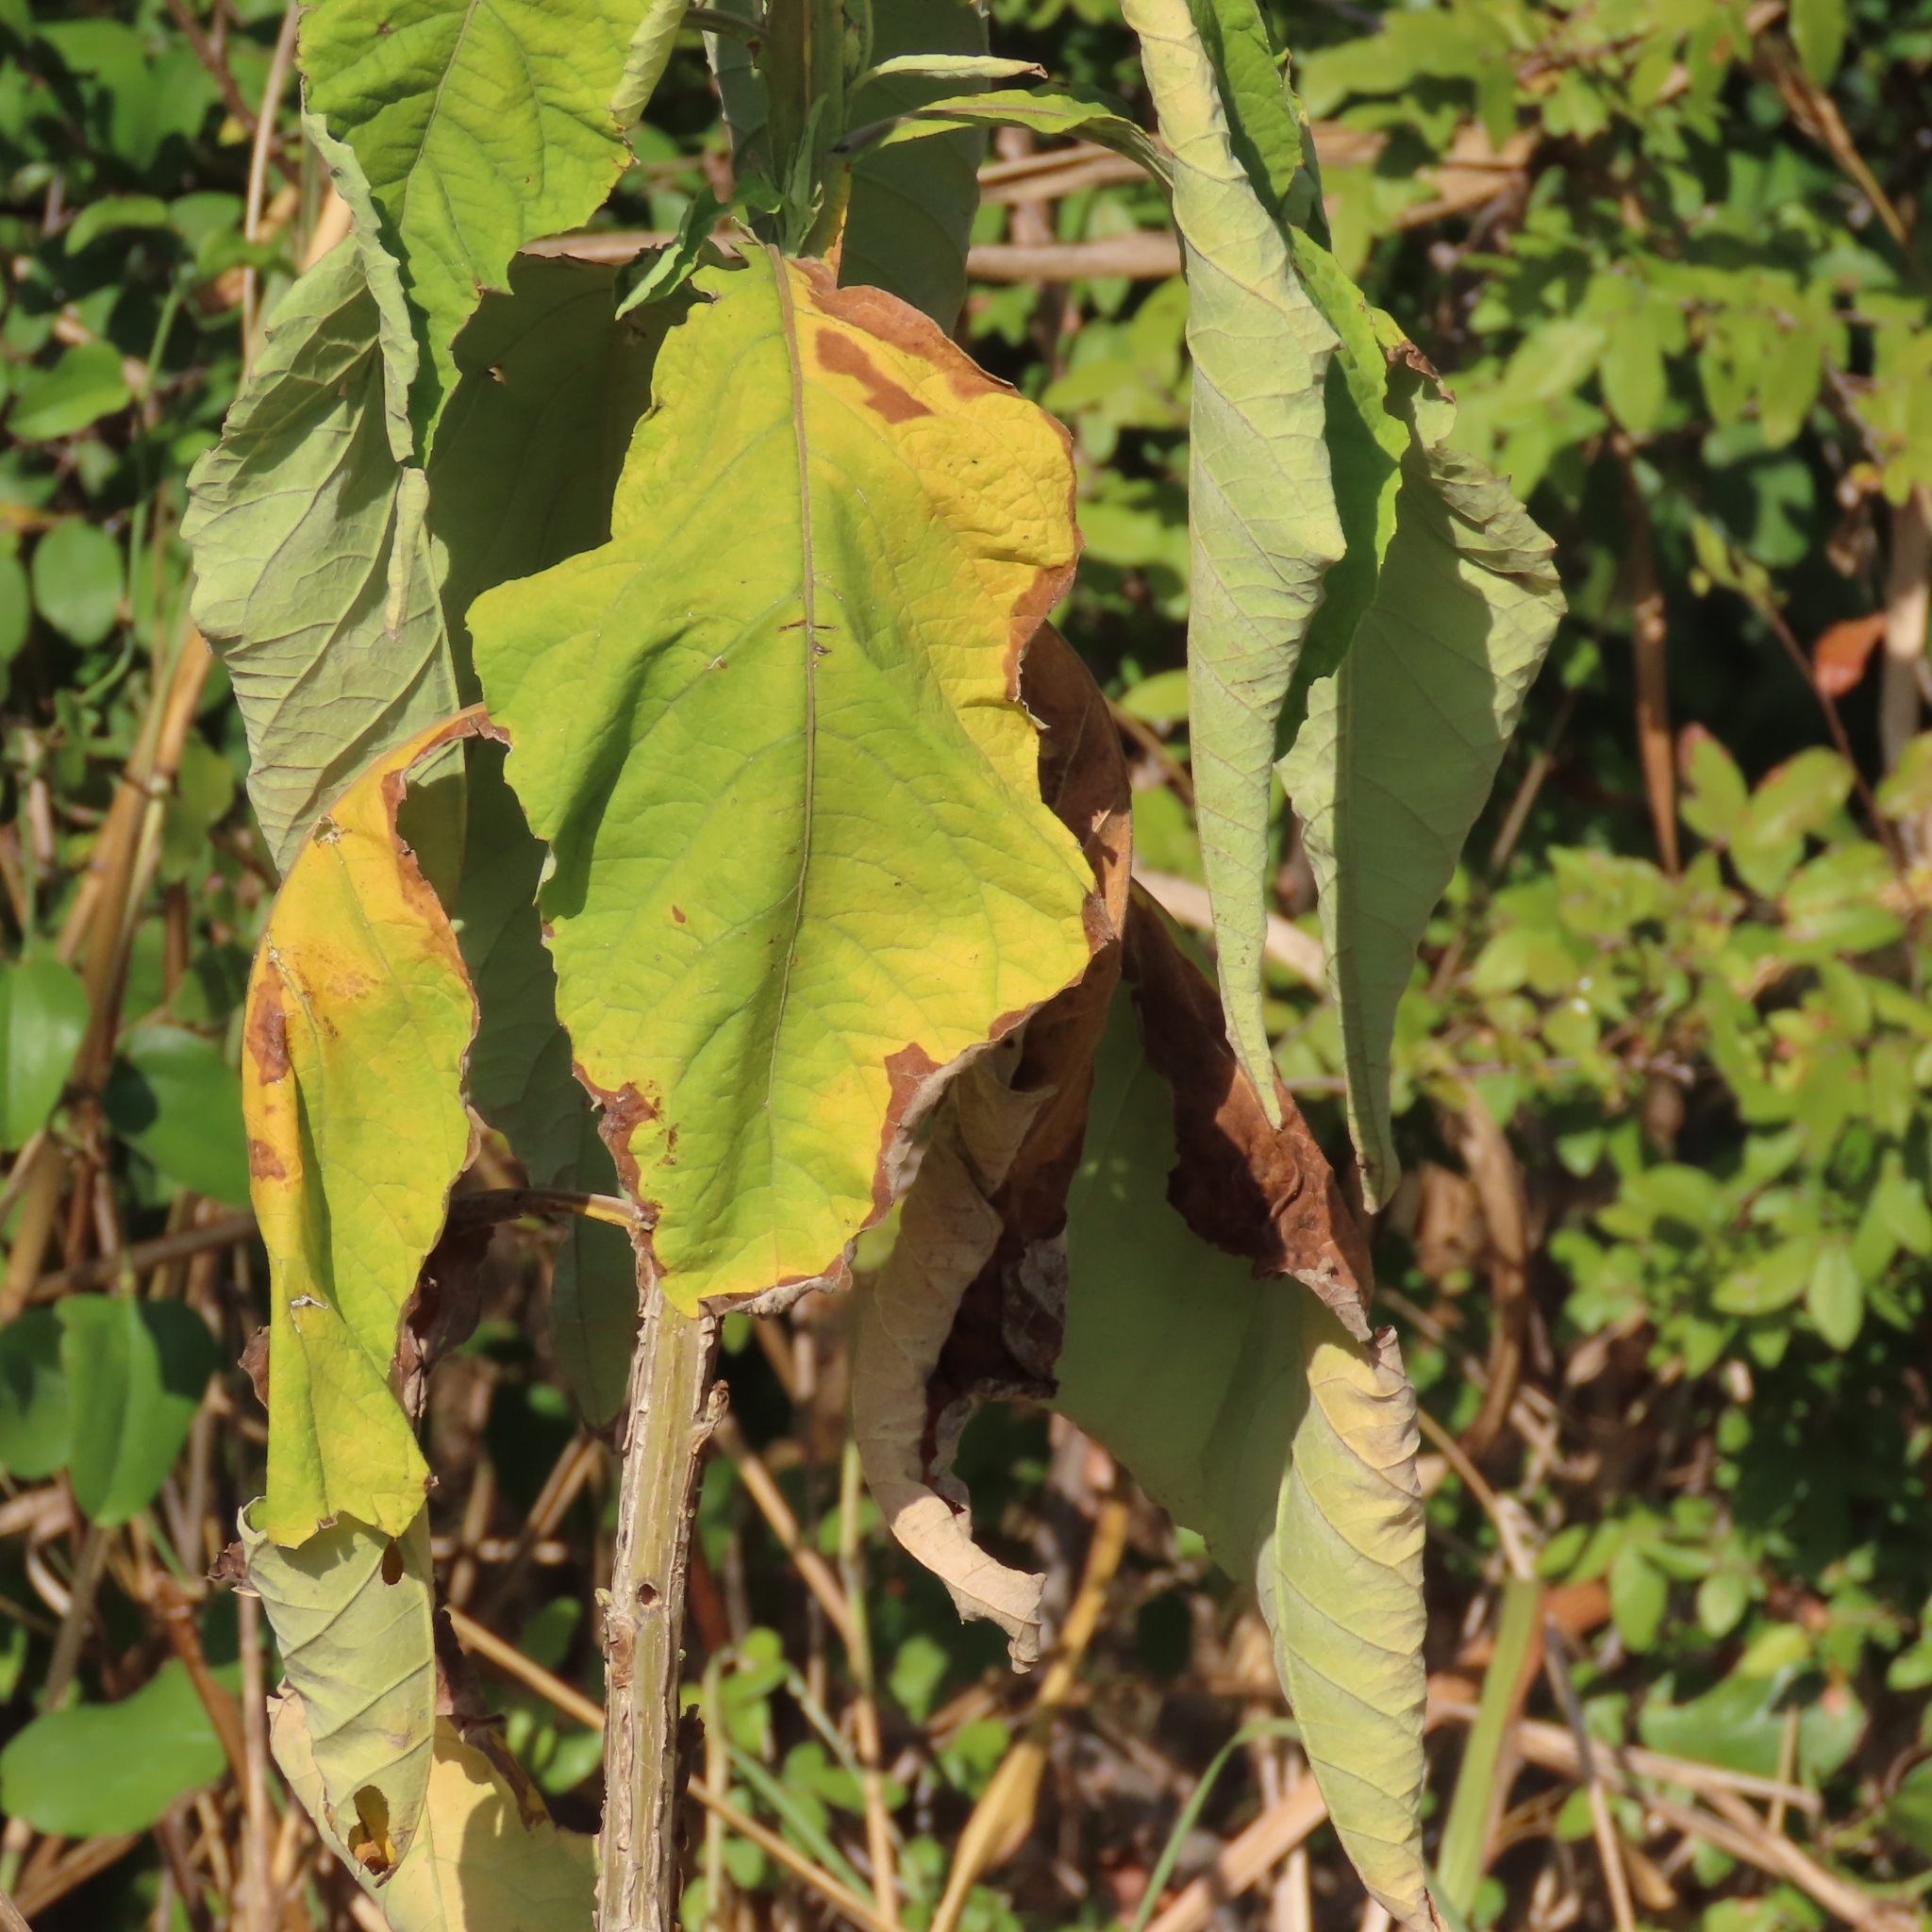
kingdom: Plantae
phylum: Tracheophyta
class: Magnoliopsida
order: Asterales
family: Asteraceae
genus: Verbesina
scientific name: Verbesina virginica
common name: Frostweed
